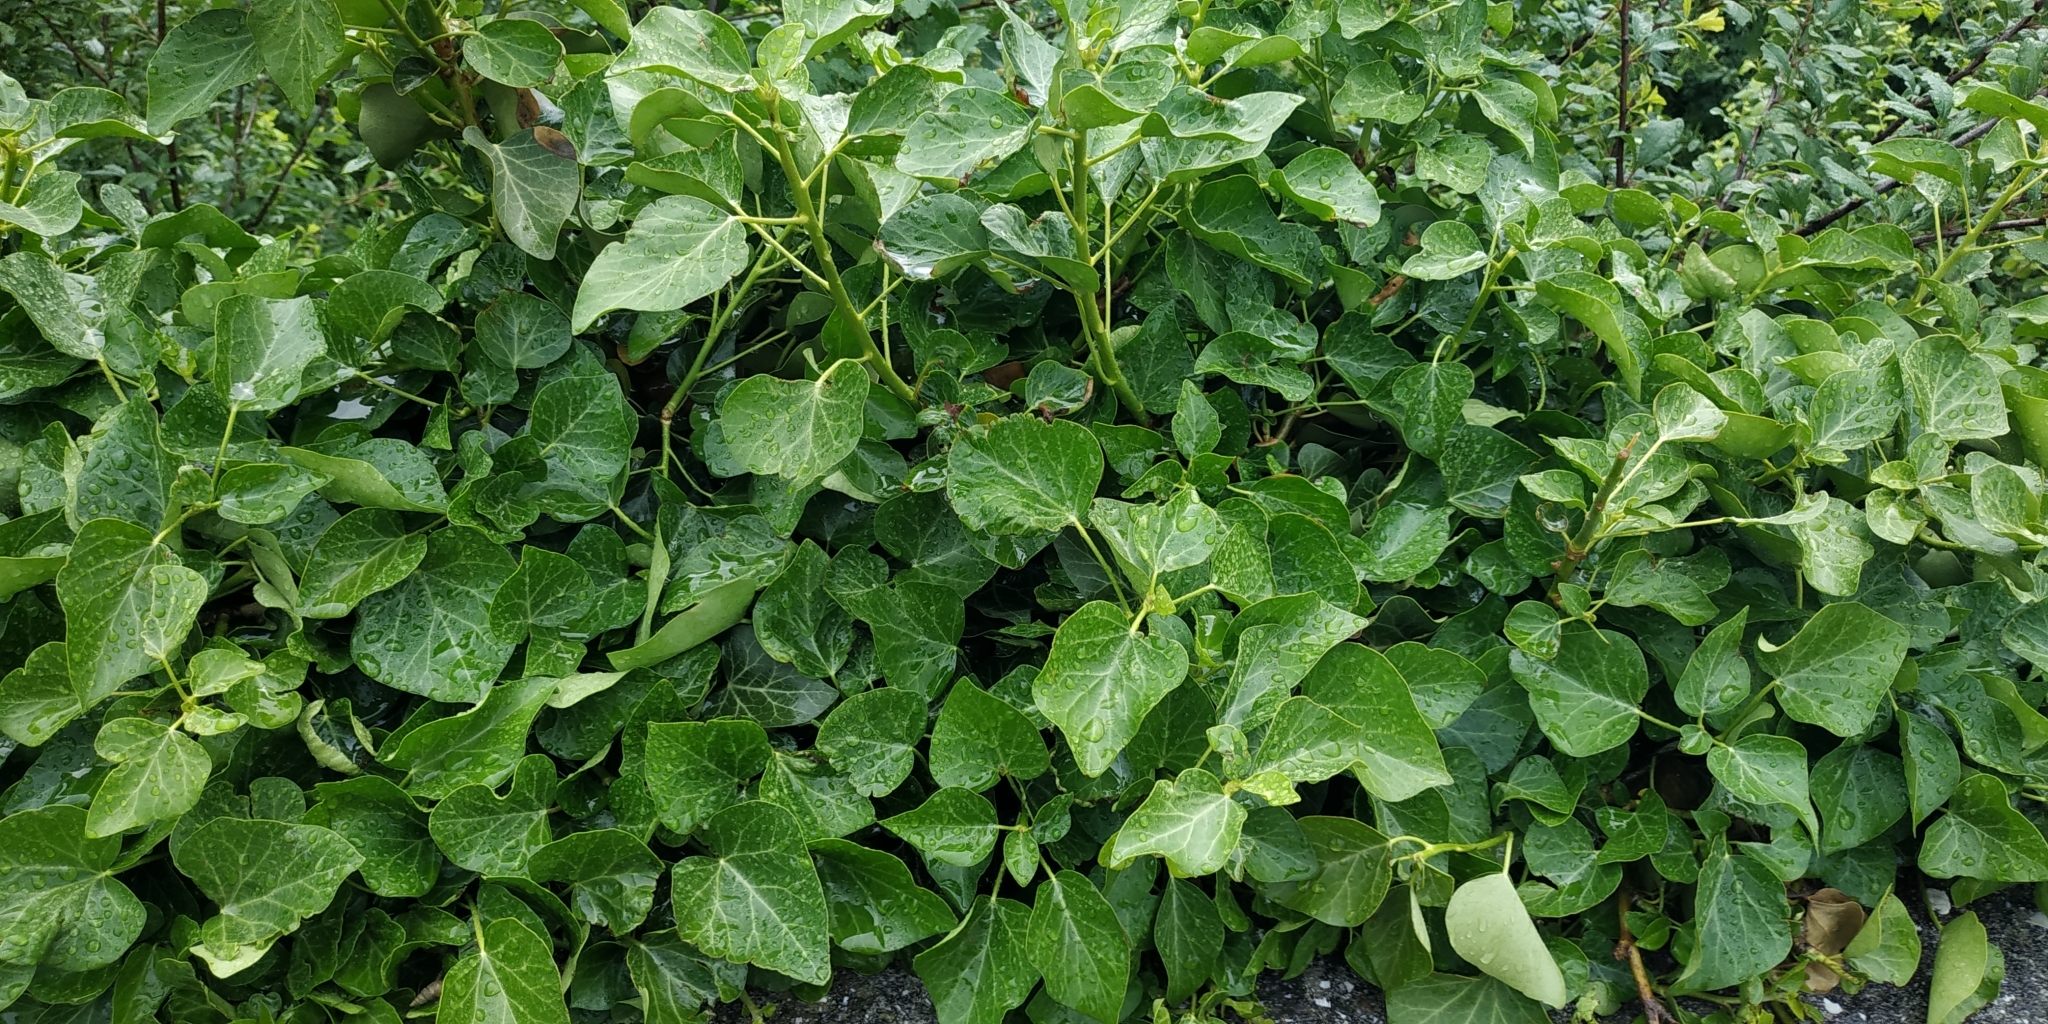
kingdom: Plantae
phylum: Tracheophyta
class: Magnoliopsida
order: Apiales
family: Araliaceae
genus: Hedera
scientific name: Hedera helix
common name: Ivy
